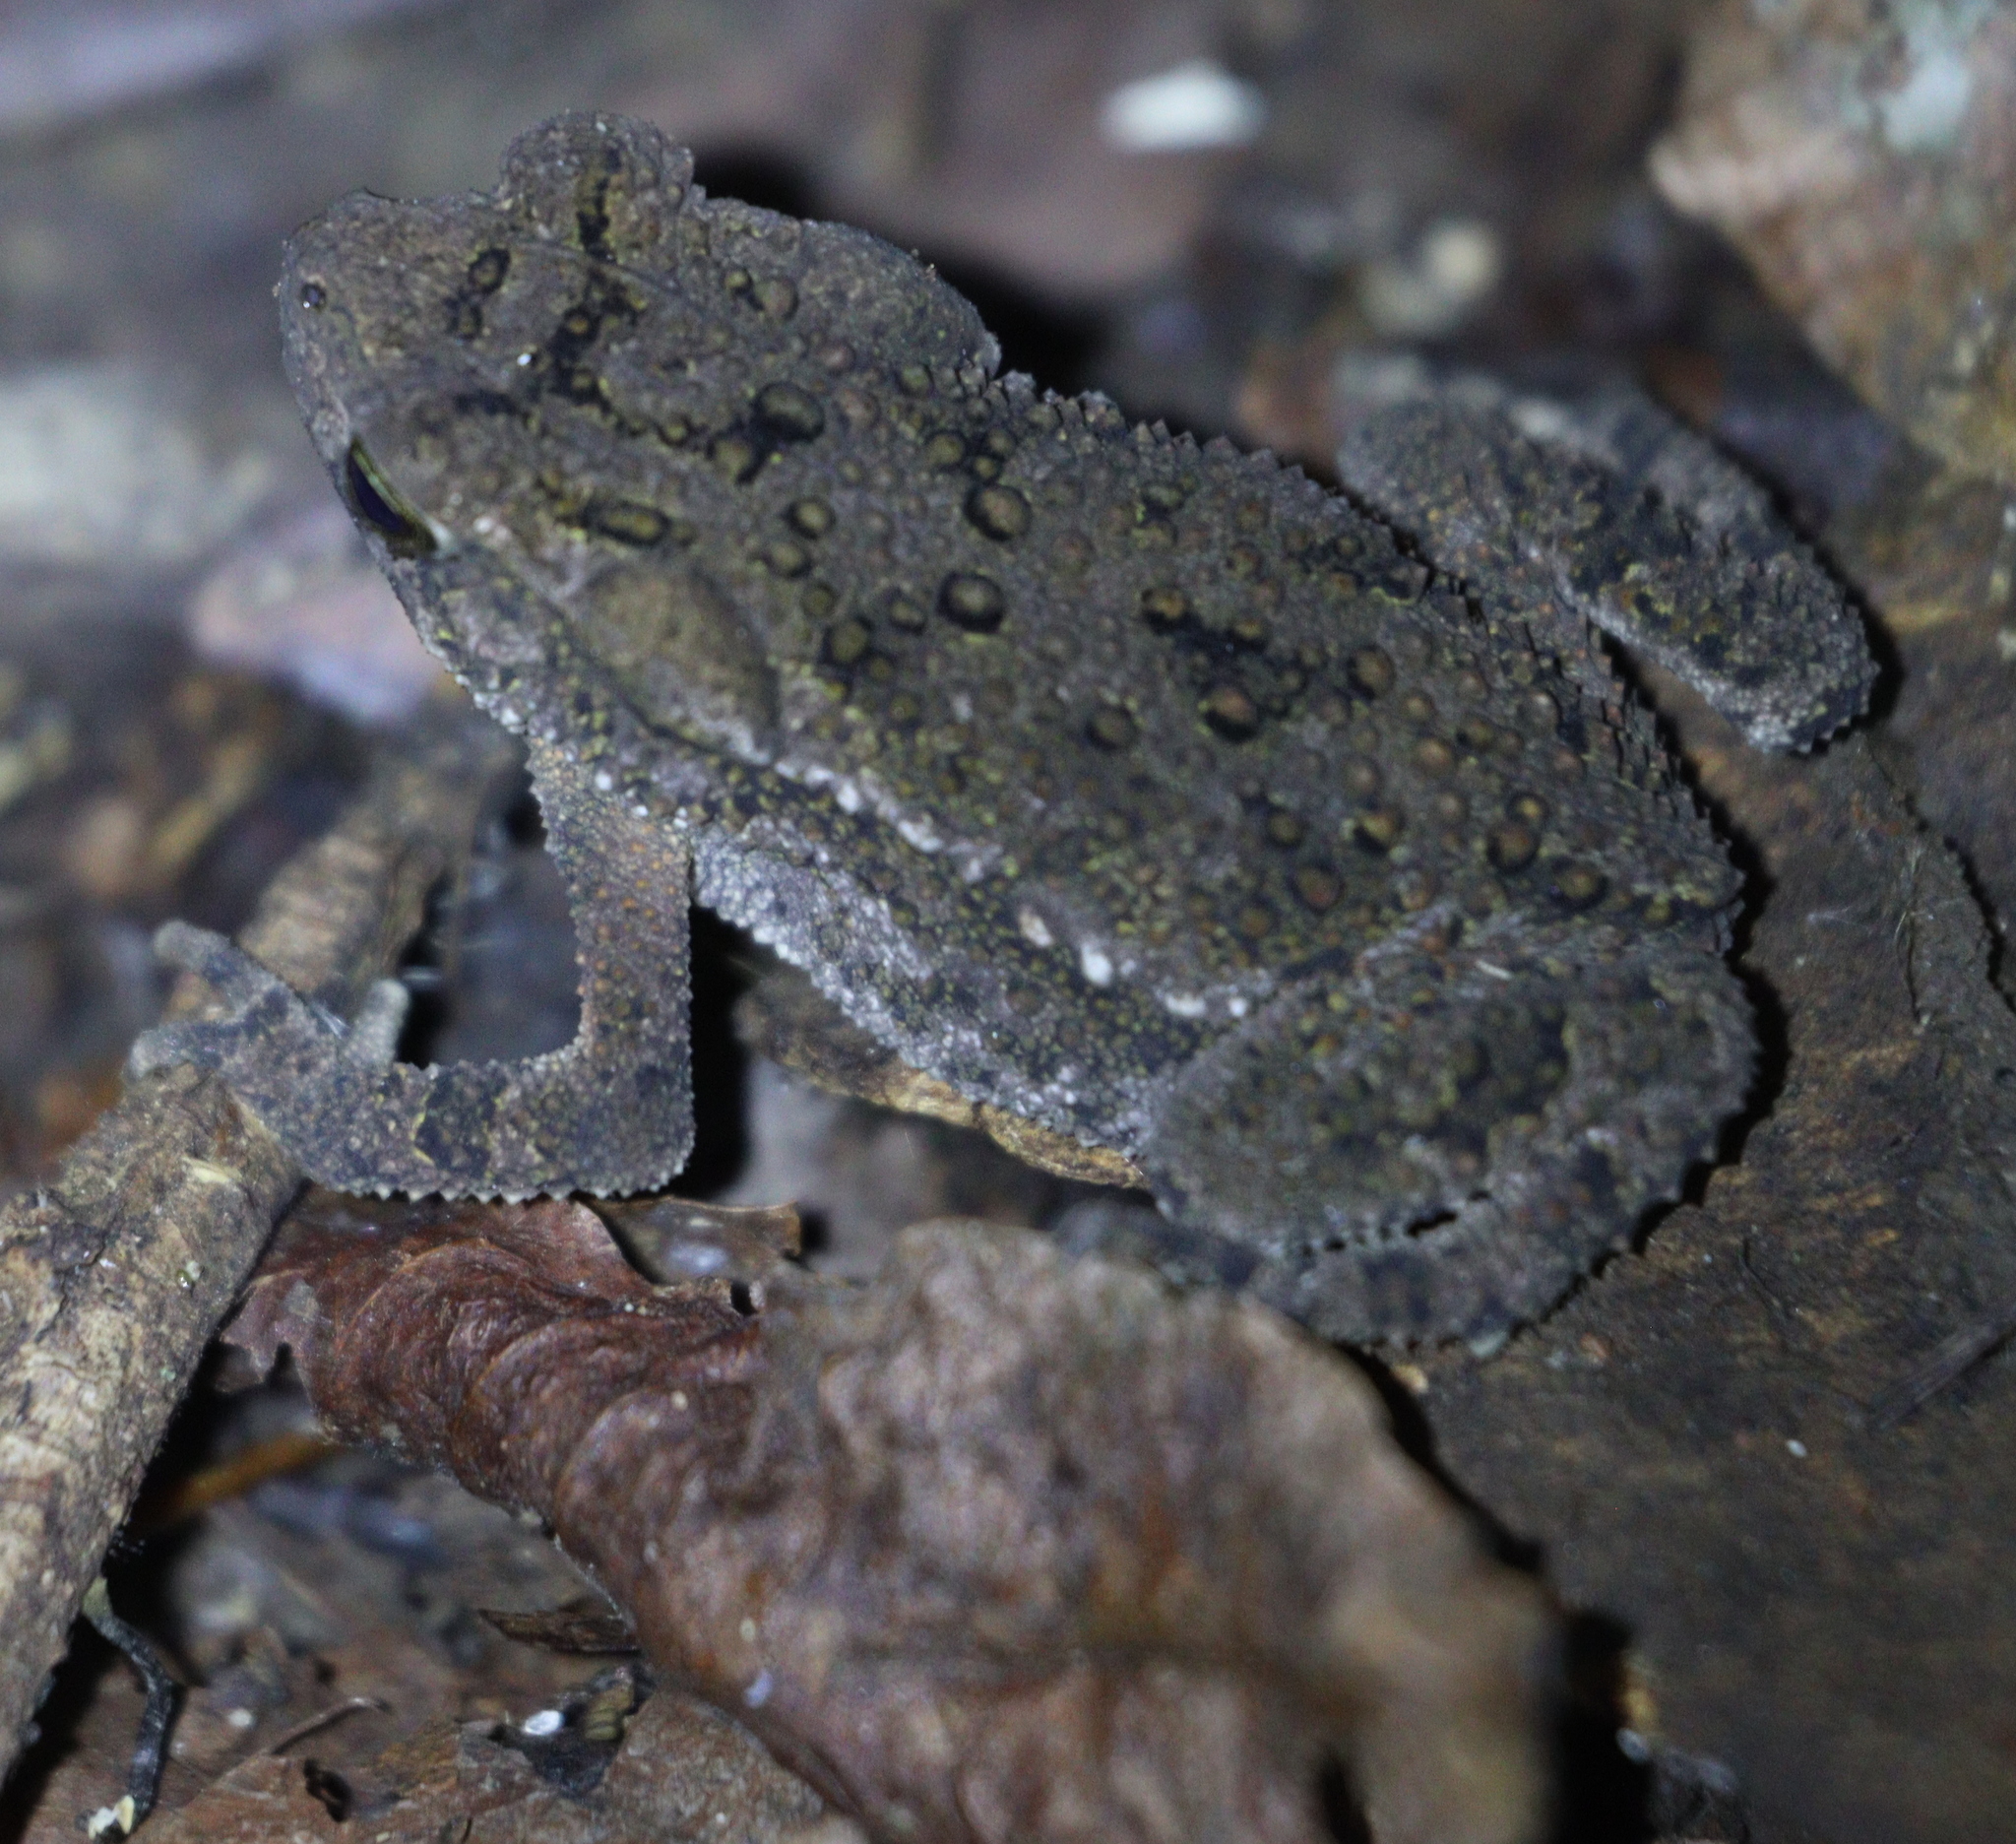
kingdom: Animalia
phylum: Chordata
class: Amphibia
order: Anura
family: Bufonidae
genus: Ingerophrynus
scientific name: Ingerophrynus biporcatus
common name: Crested toad
